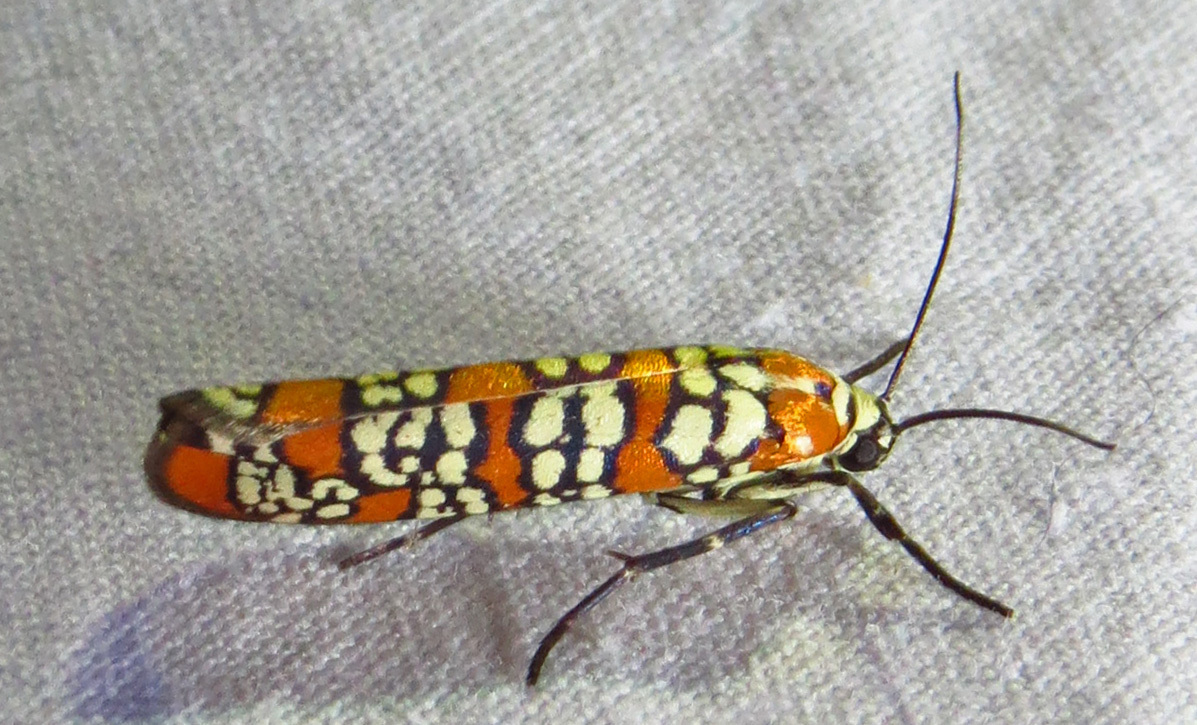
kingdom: Animalia
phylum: Arthropoda
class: Insecta
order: Lepidoptera
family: Attevidae
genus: Atteva
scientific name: Atteva punctella
